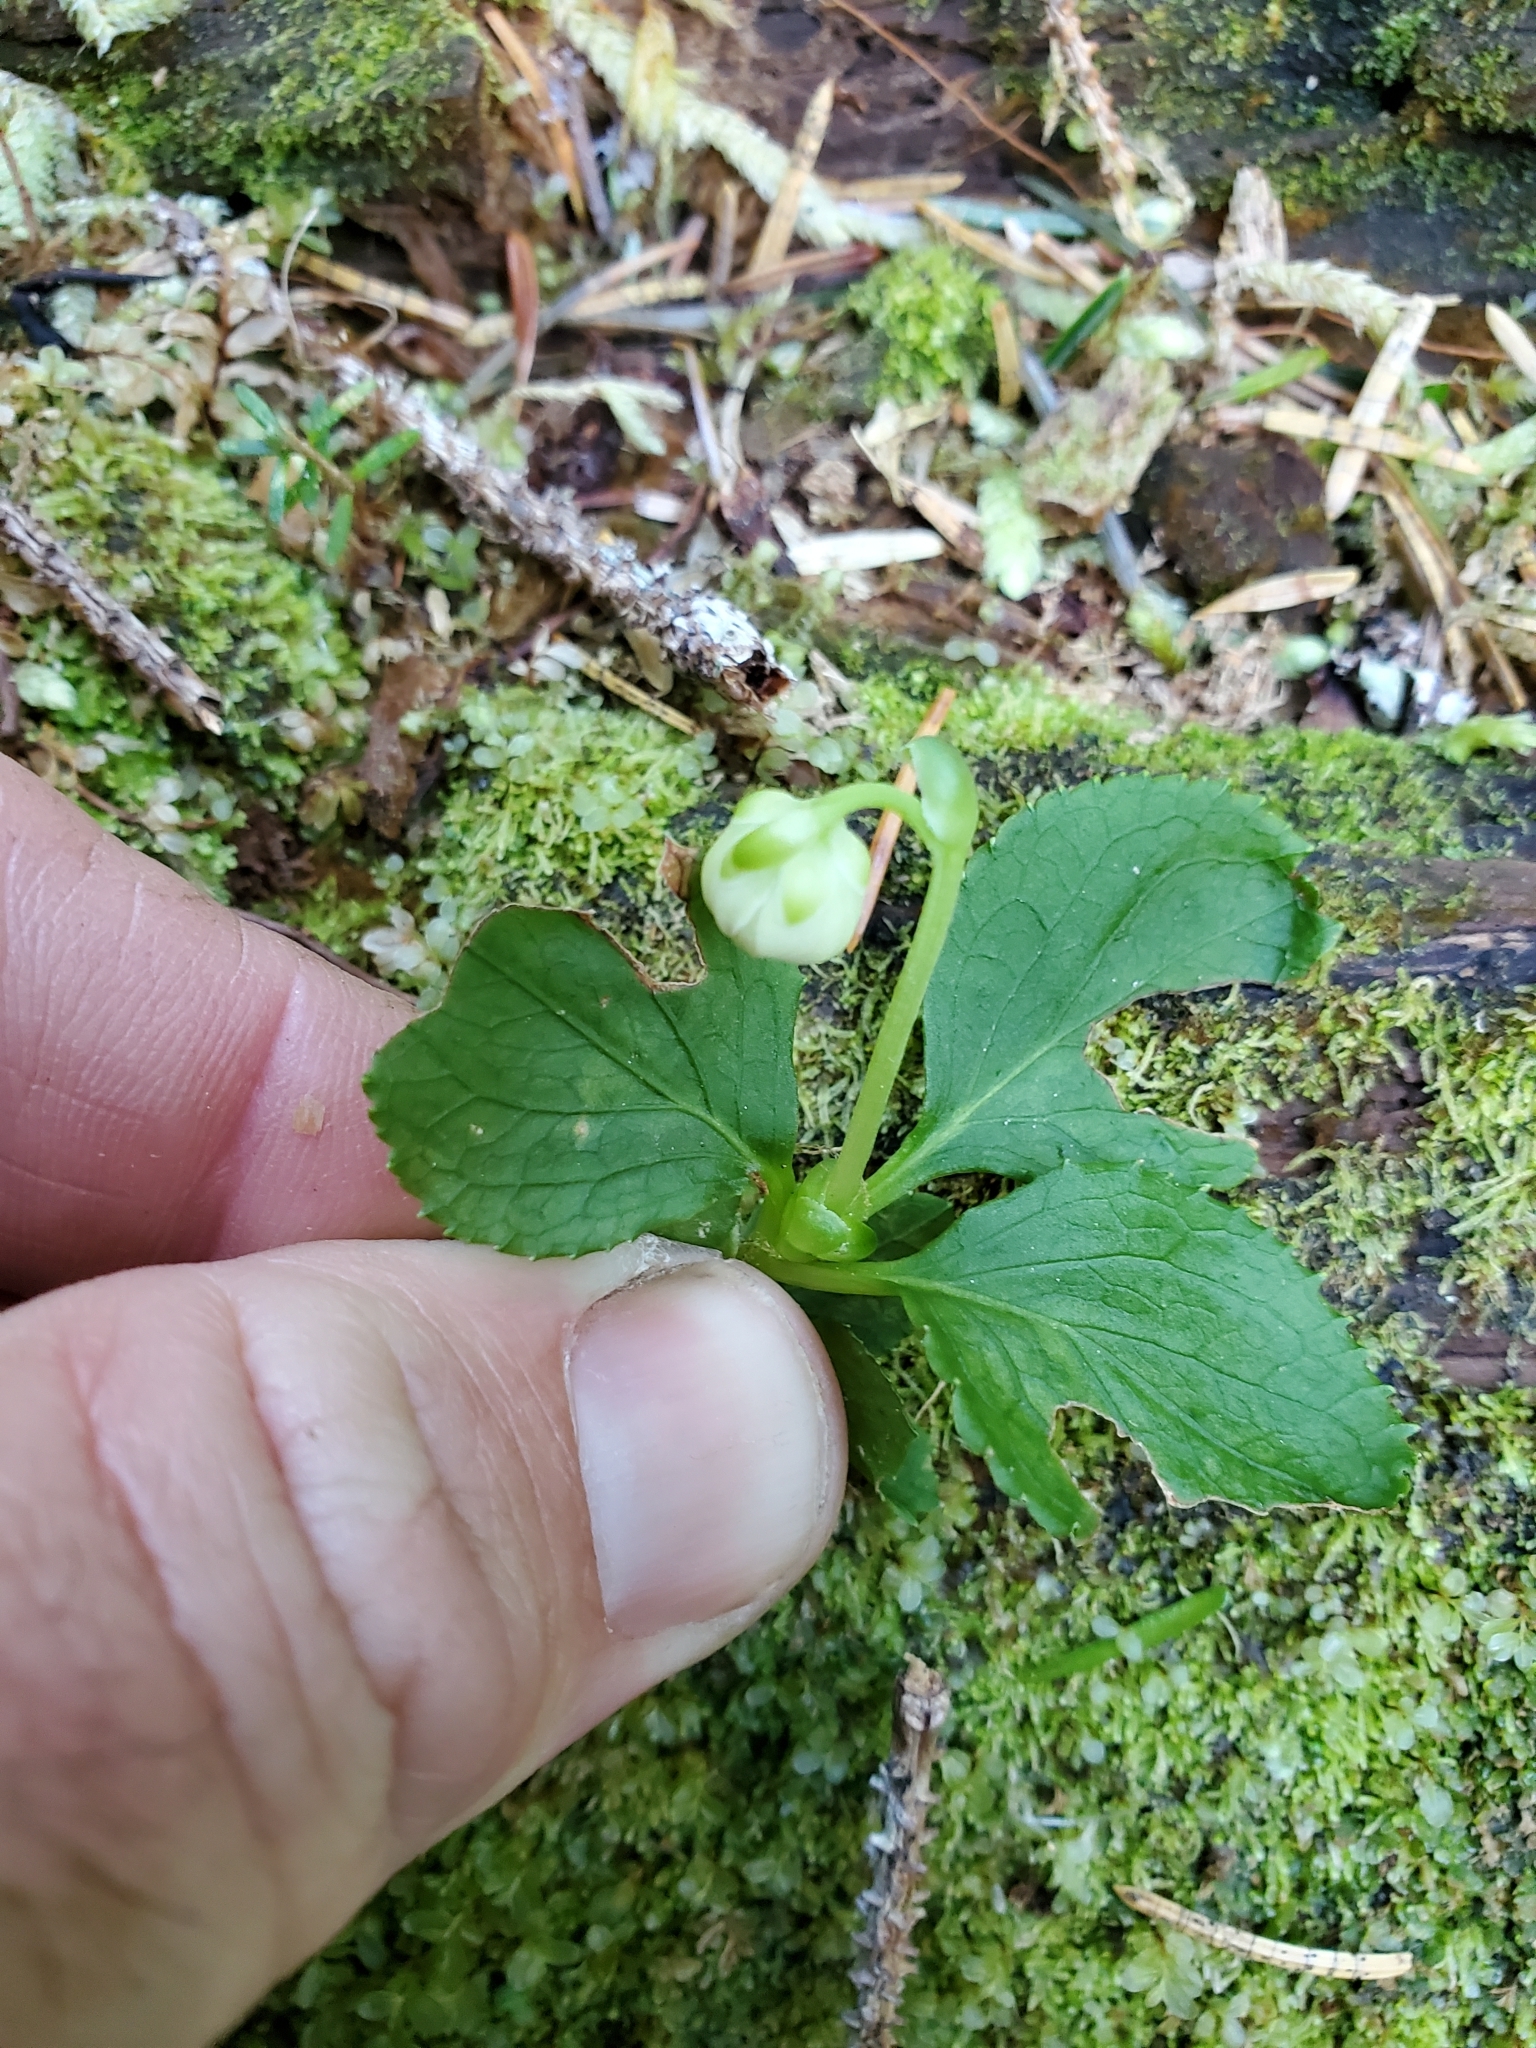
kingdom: Plantae
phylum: Tracheophyta
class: Magnoliopsida
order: Ericales
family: Ericaceae
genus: Moneses
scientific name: Moneses uniflora
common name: One-flowered wintergreen
